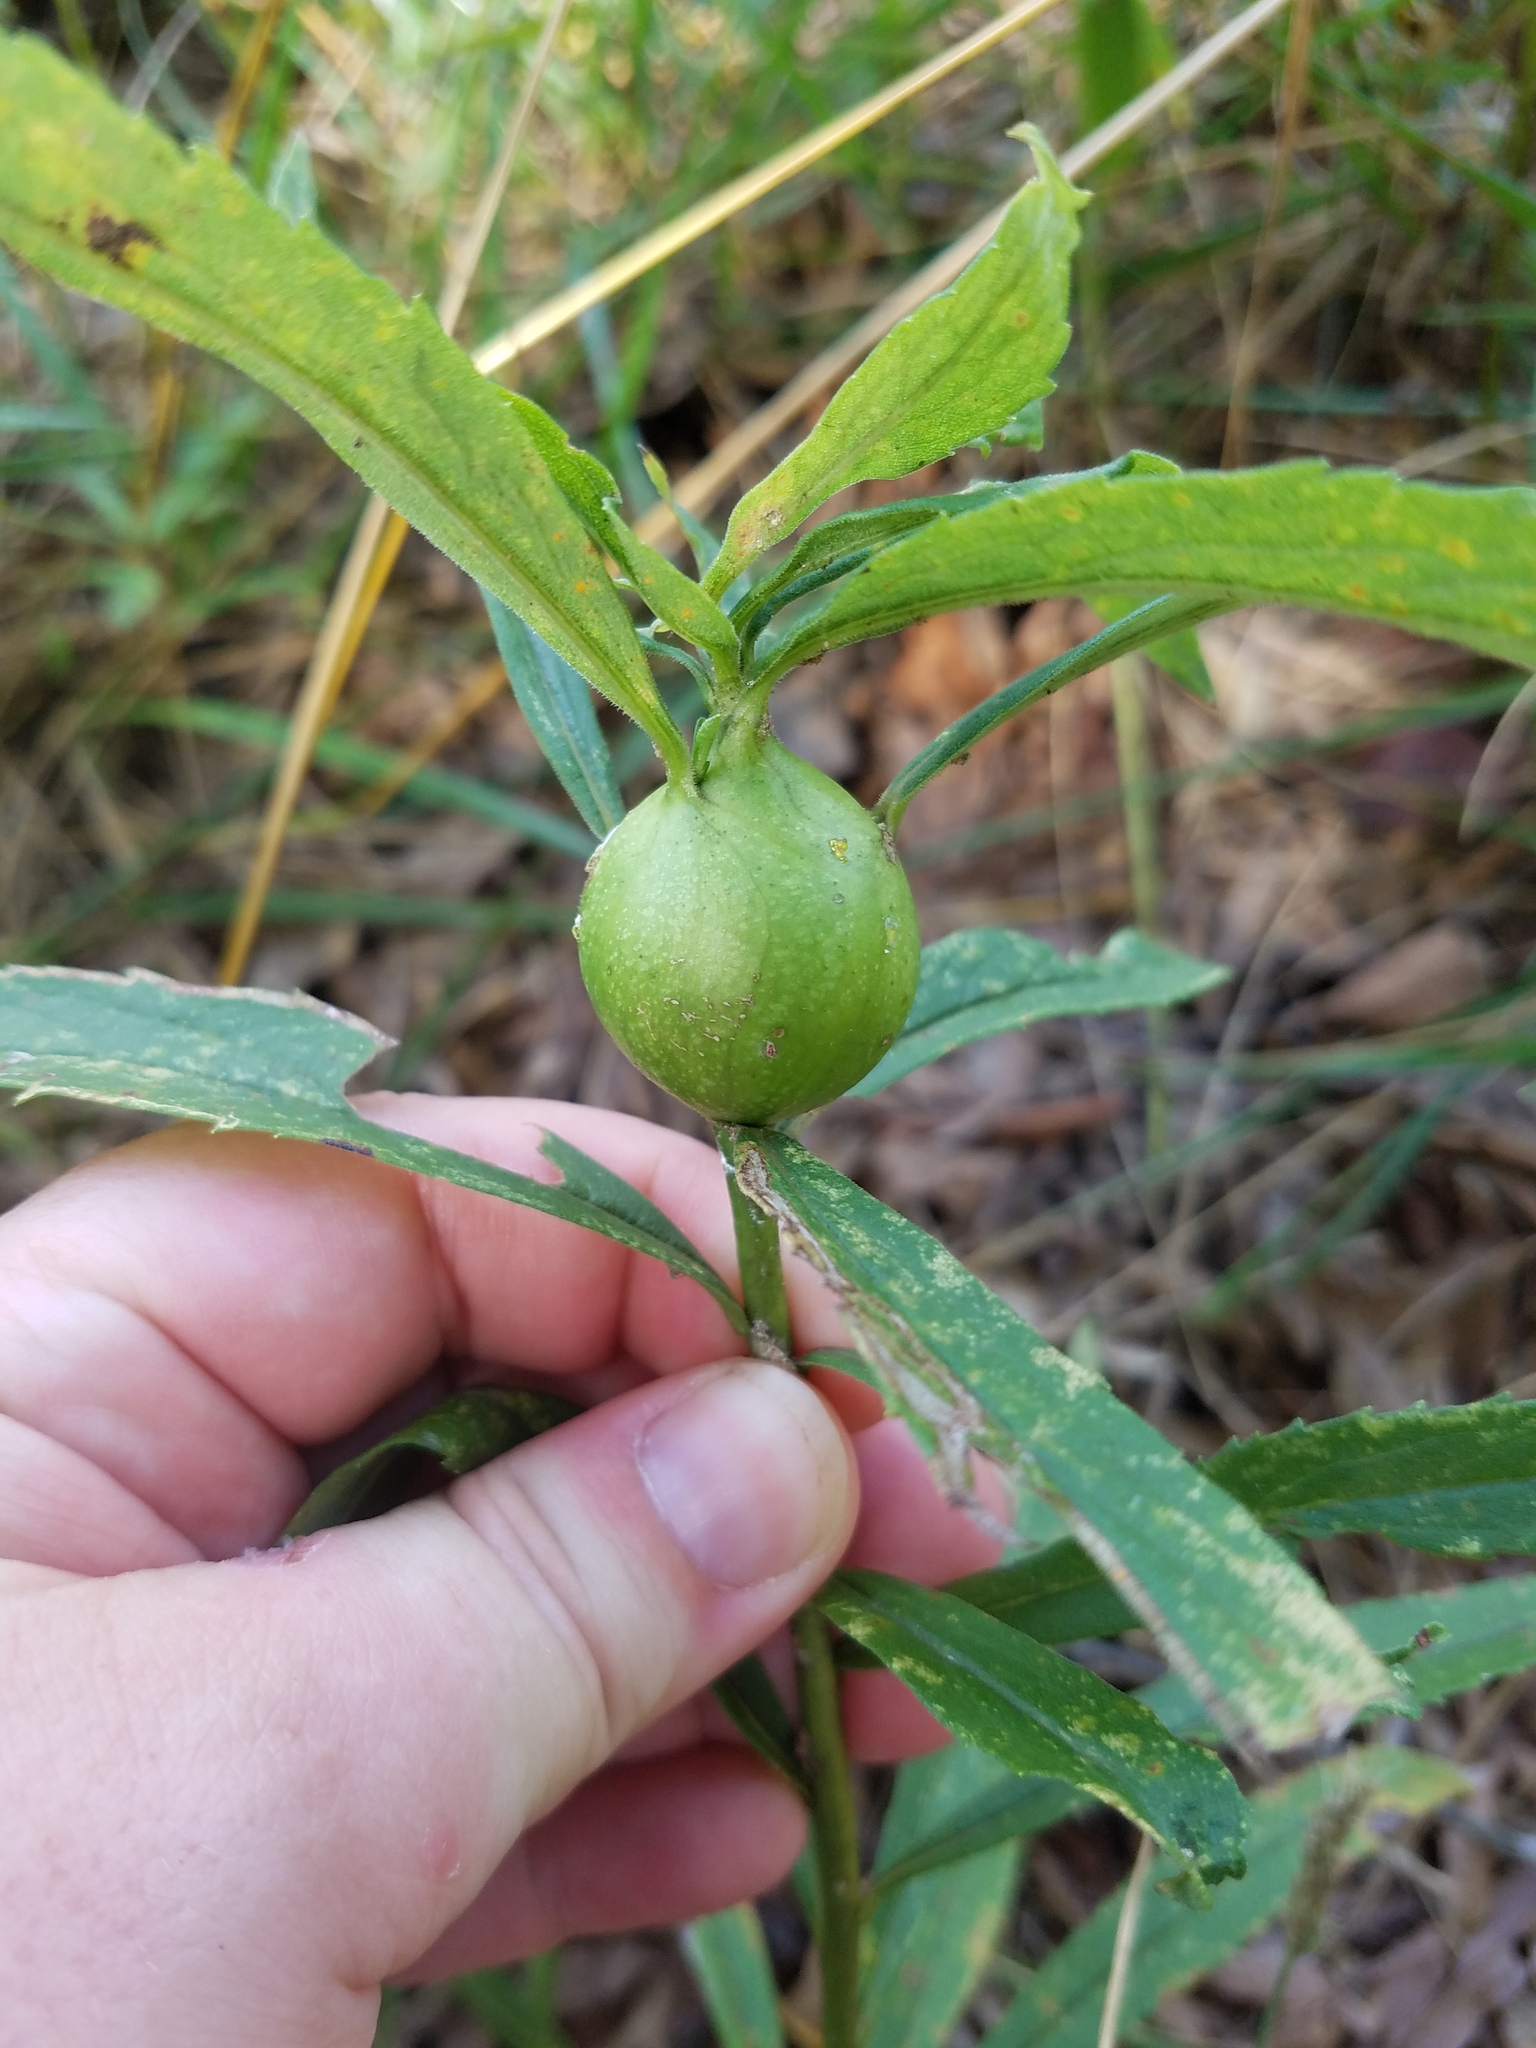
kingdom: Animalia
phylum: Arthropoda
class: Insecta
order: Diptera
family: Tephritidae
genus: Eurosta
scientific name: Eurosta solidaginis
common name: Goldenrod gall fly
